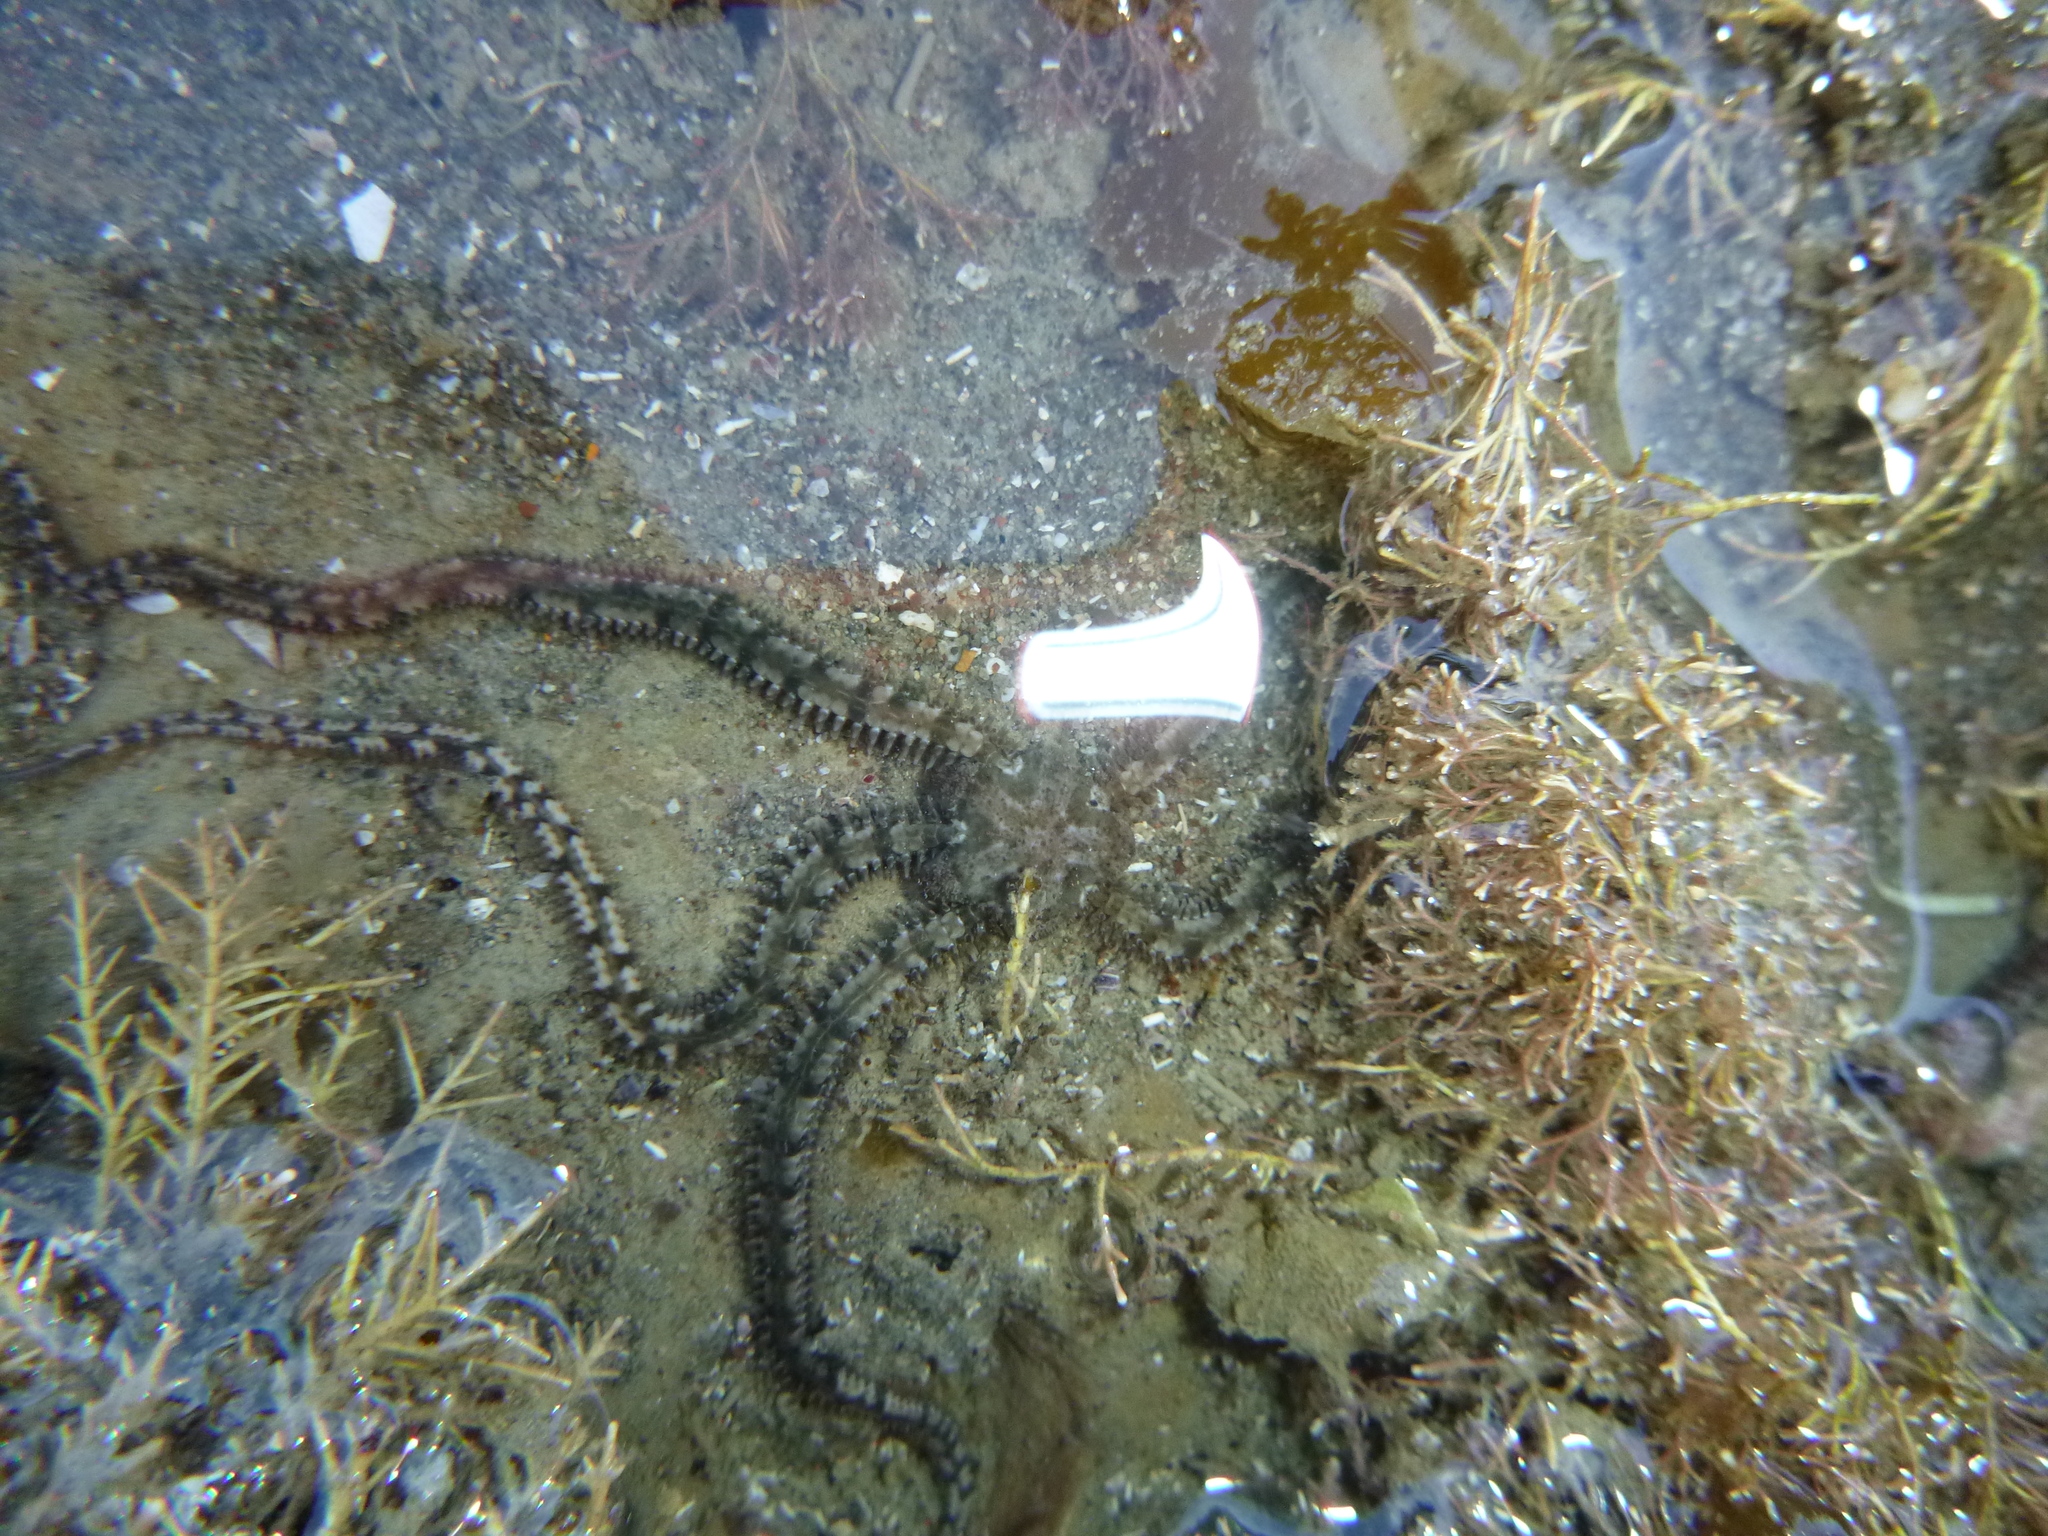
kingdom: Animalia
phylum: Echinodermata
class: Ophiuroidea
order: Amphilepidida
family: Ophionereididae
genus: Ophionereis
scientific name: Ophionereis fasciata
